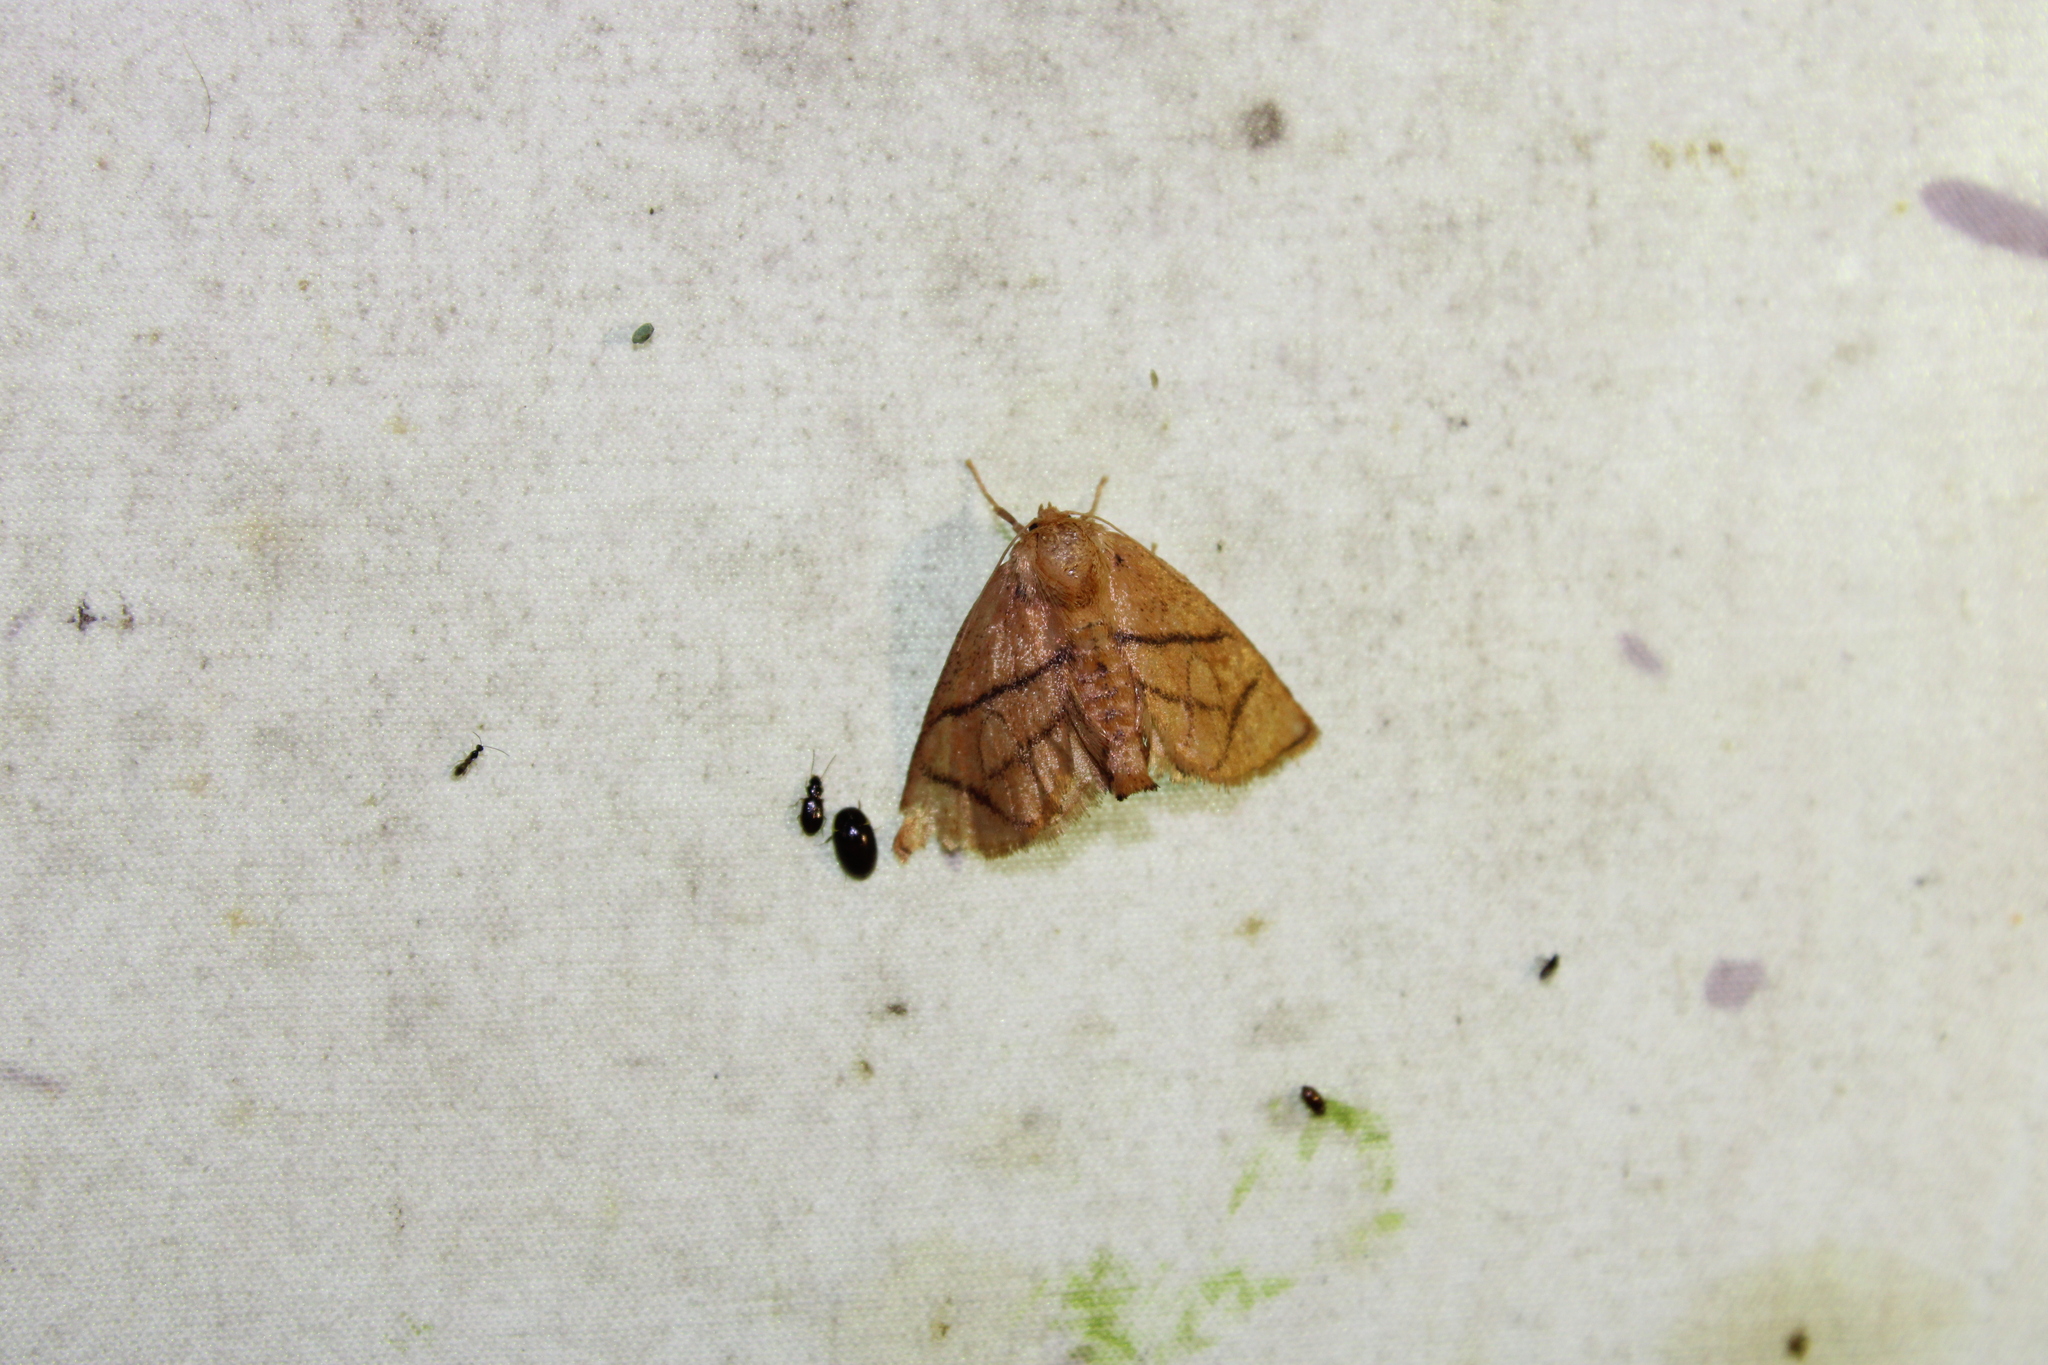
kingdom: Animalia
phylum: Arthropoda
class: Insecta
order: Lepidoptera
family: Limacodidae
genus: Apoda
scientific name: Apoda y-inversa
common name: Yellow-collared slug moth
